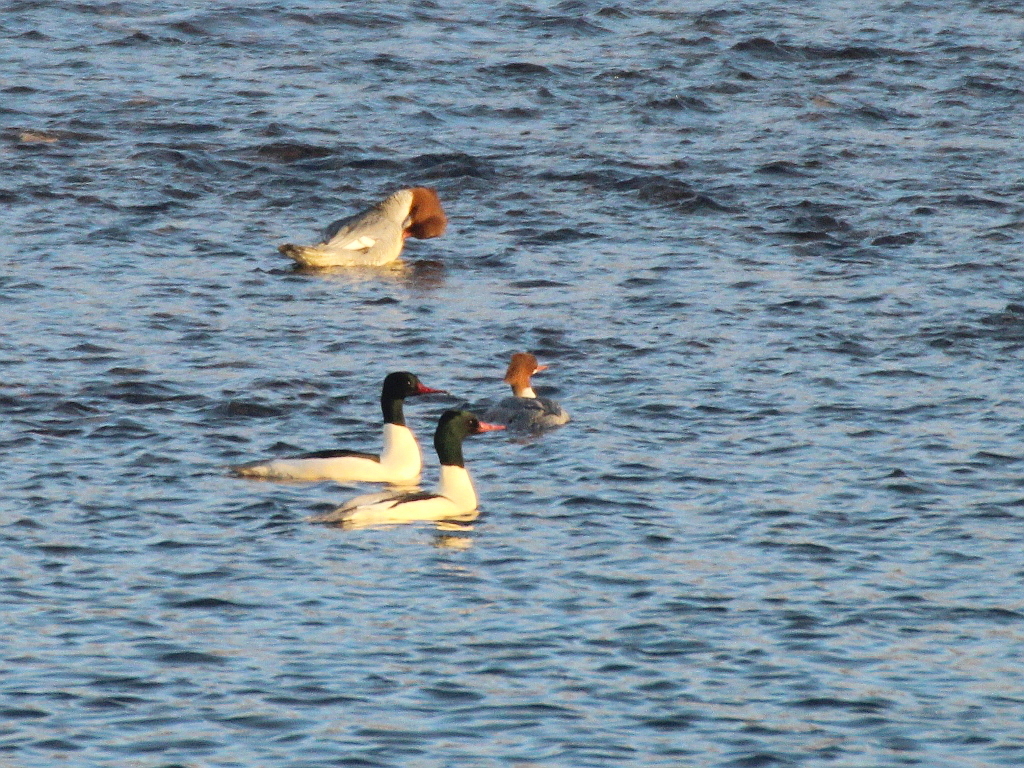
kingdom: Animalia
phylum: Chordata
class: Aves
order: Anseriformes
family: Anatidae
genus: Mergus
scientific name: Mergus merganser
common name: Common merganser
